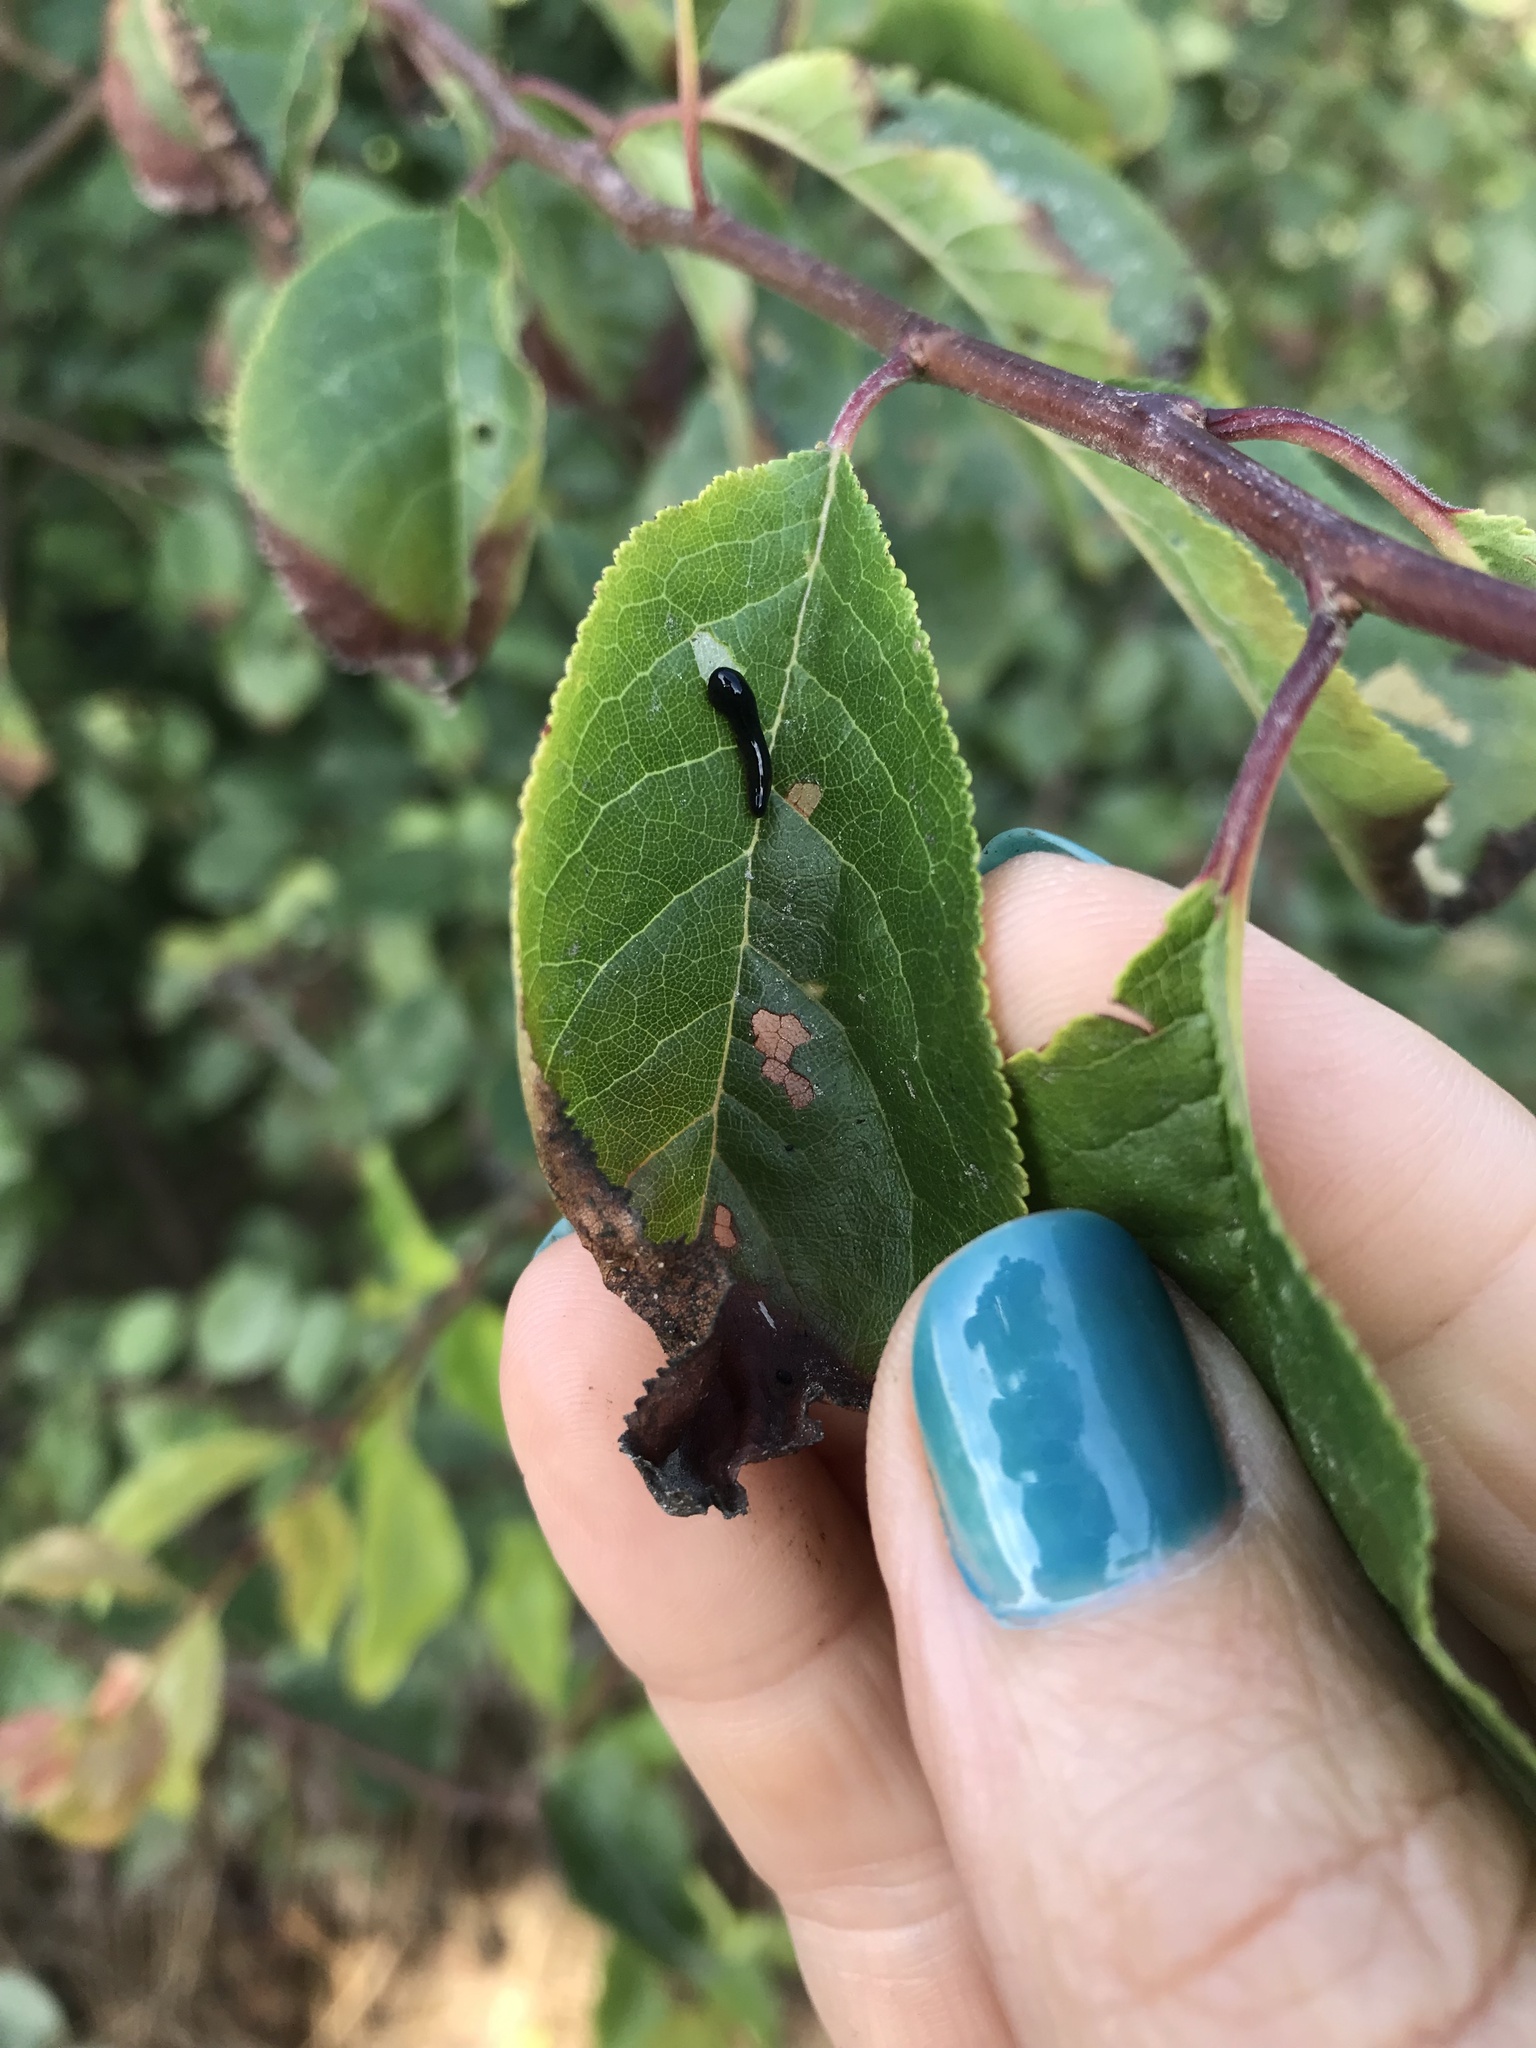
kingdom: Animalia
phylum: Arthropoda
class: Insecta
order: Hymenoptera
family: Tenthredinidae
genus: Caliroa
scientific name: Caliroa cerasi
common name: Pear sawfly
